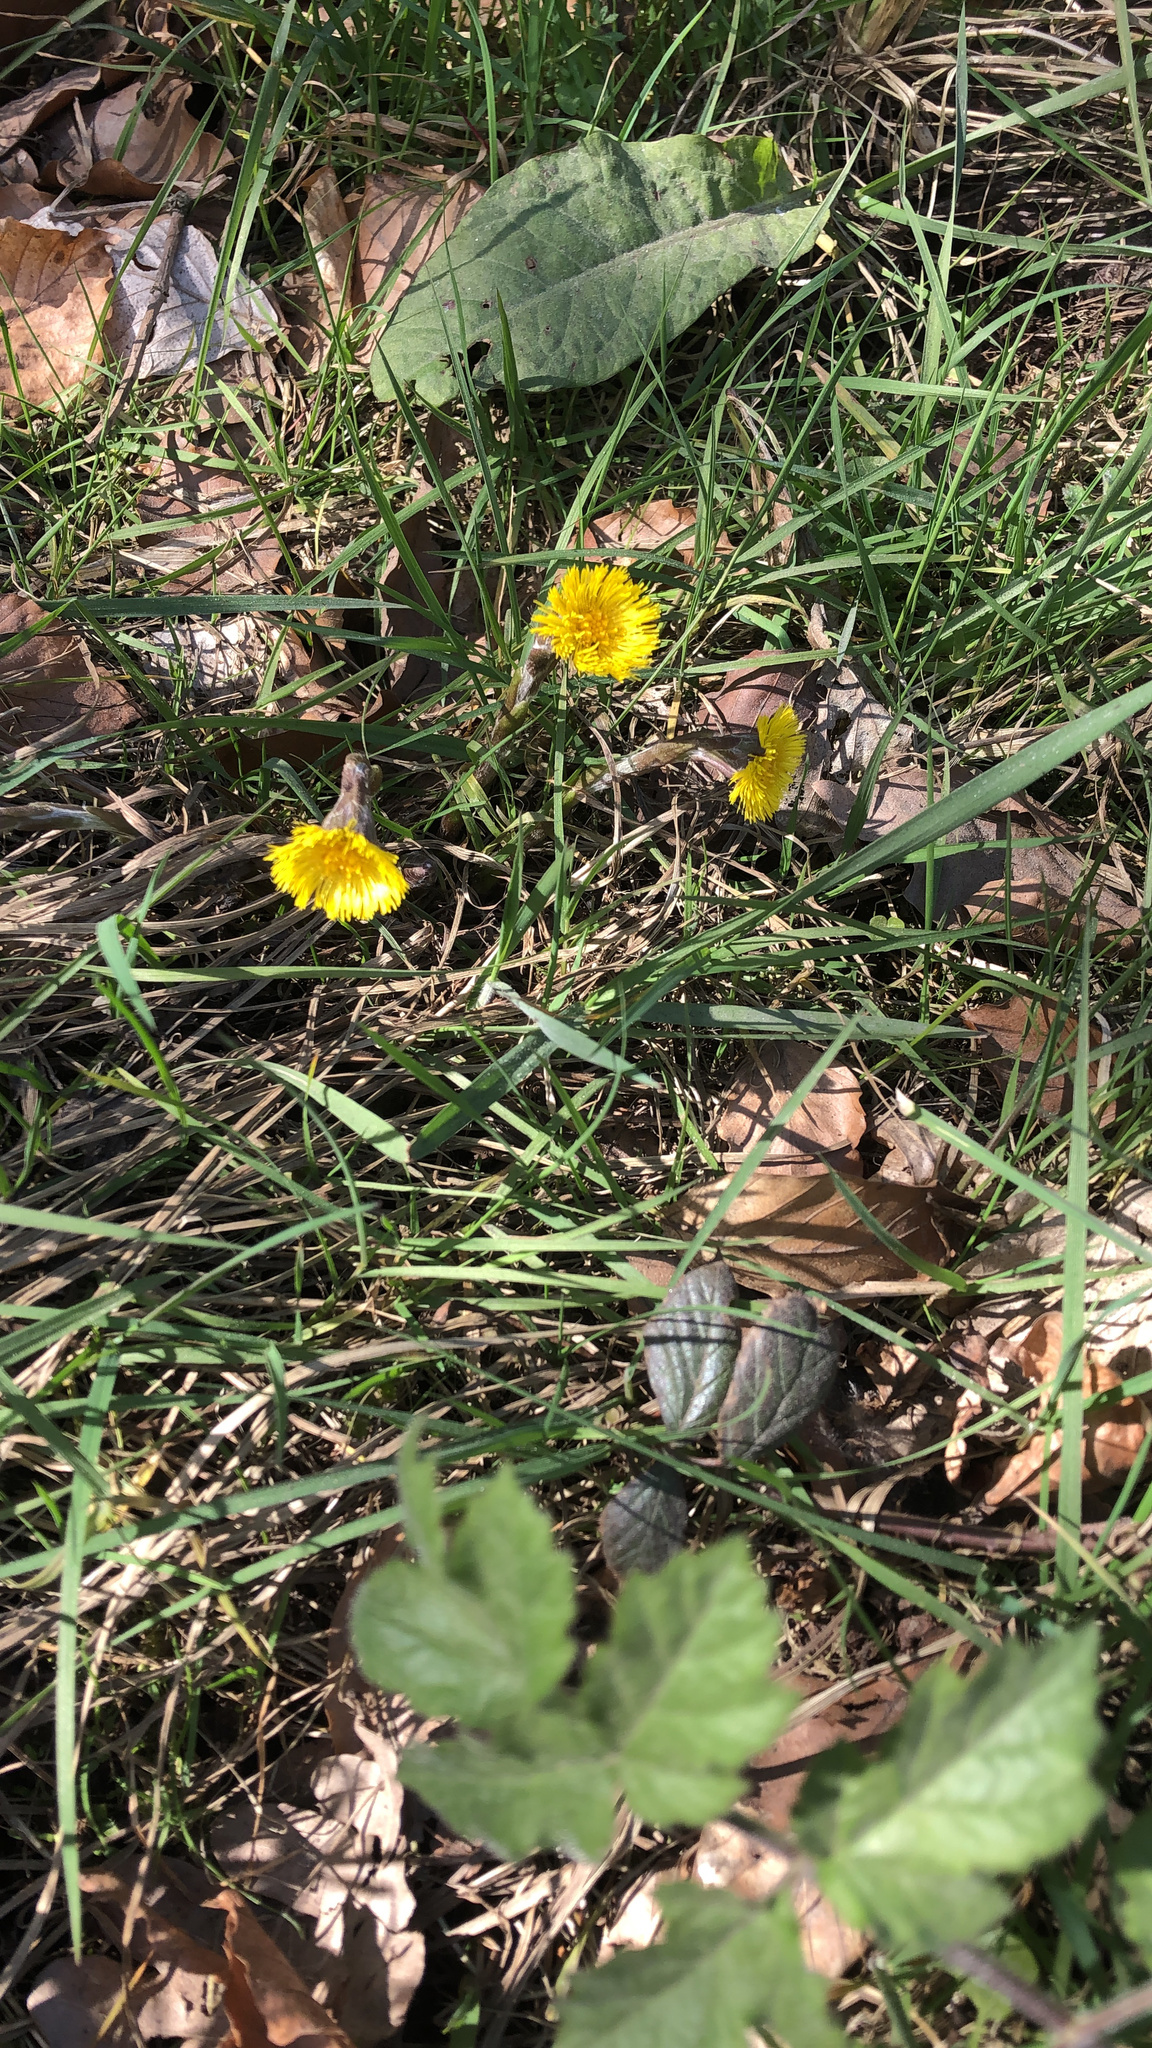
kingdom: Plantae
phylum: Tracheophyta
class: Magnoliopsida
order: Asterales
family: Asteraceae
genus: Tussilago
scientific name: Tussilago farfara
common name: Coltsfoot
